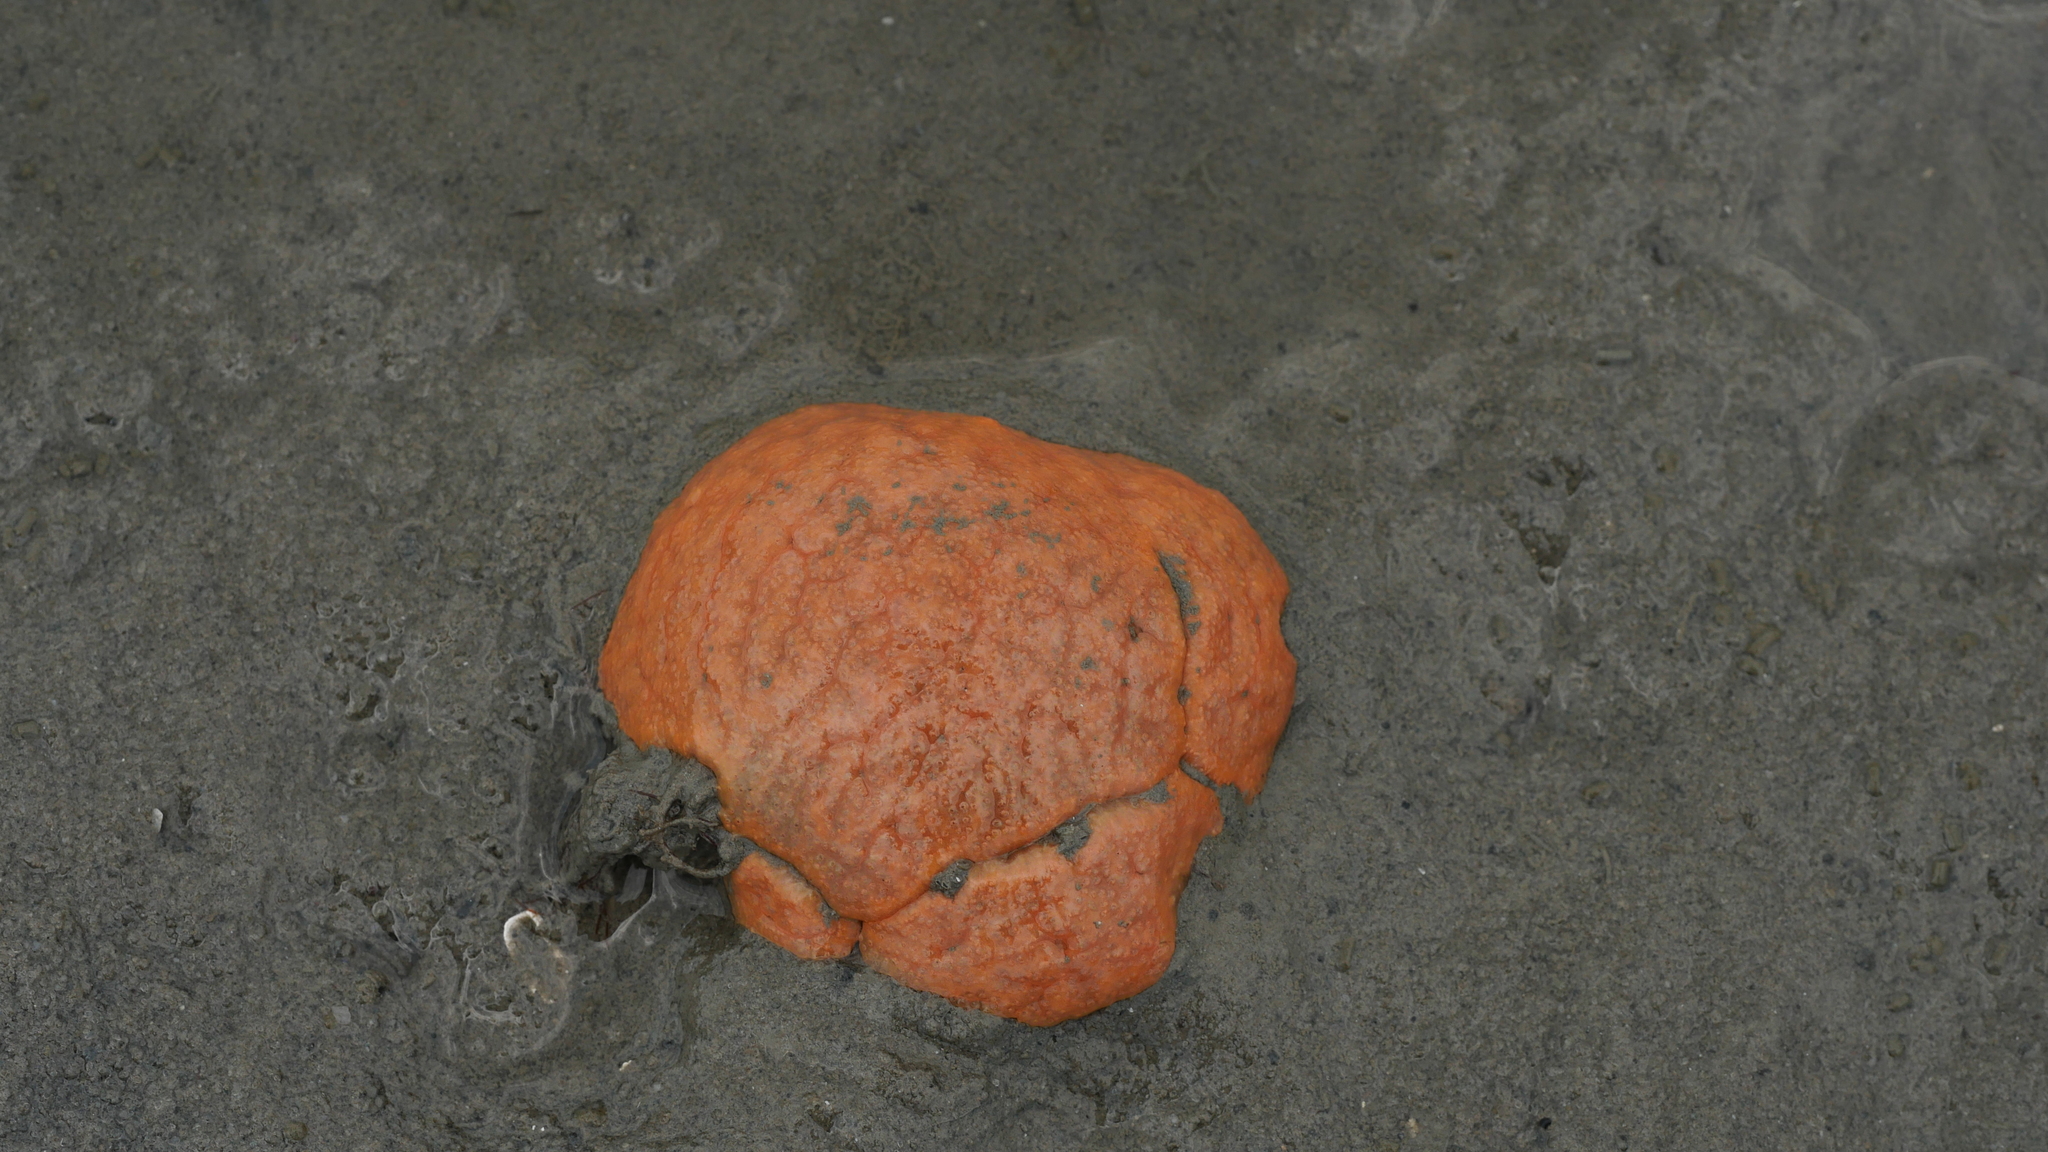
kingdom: Animalia
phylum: Chordata
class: Ascidiacea
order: Aplousobranchia
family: Polyclinidae
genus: Aplidium
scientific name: Aplidium stellatum
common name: Atlantic sea pork
